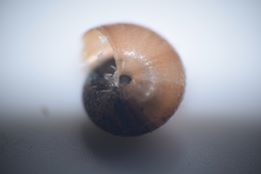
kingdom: Animalia
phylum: Mollusca
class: Gastropoda
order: Stylommatophora
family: Hygromiidae
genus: Trochulus
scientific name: Trochulus hispidus
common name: Hairy snail
